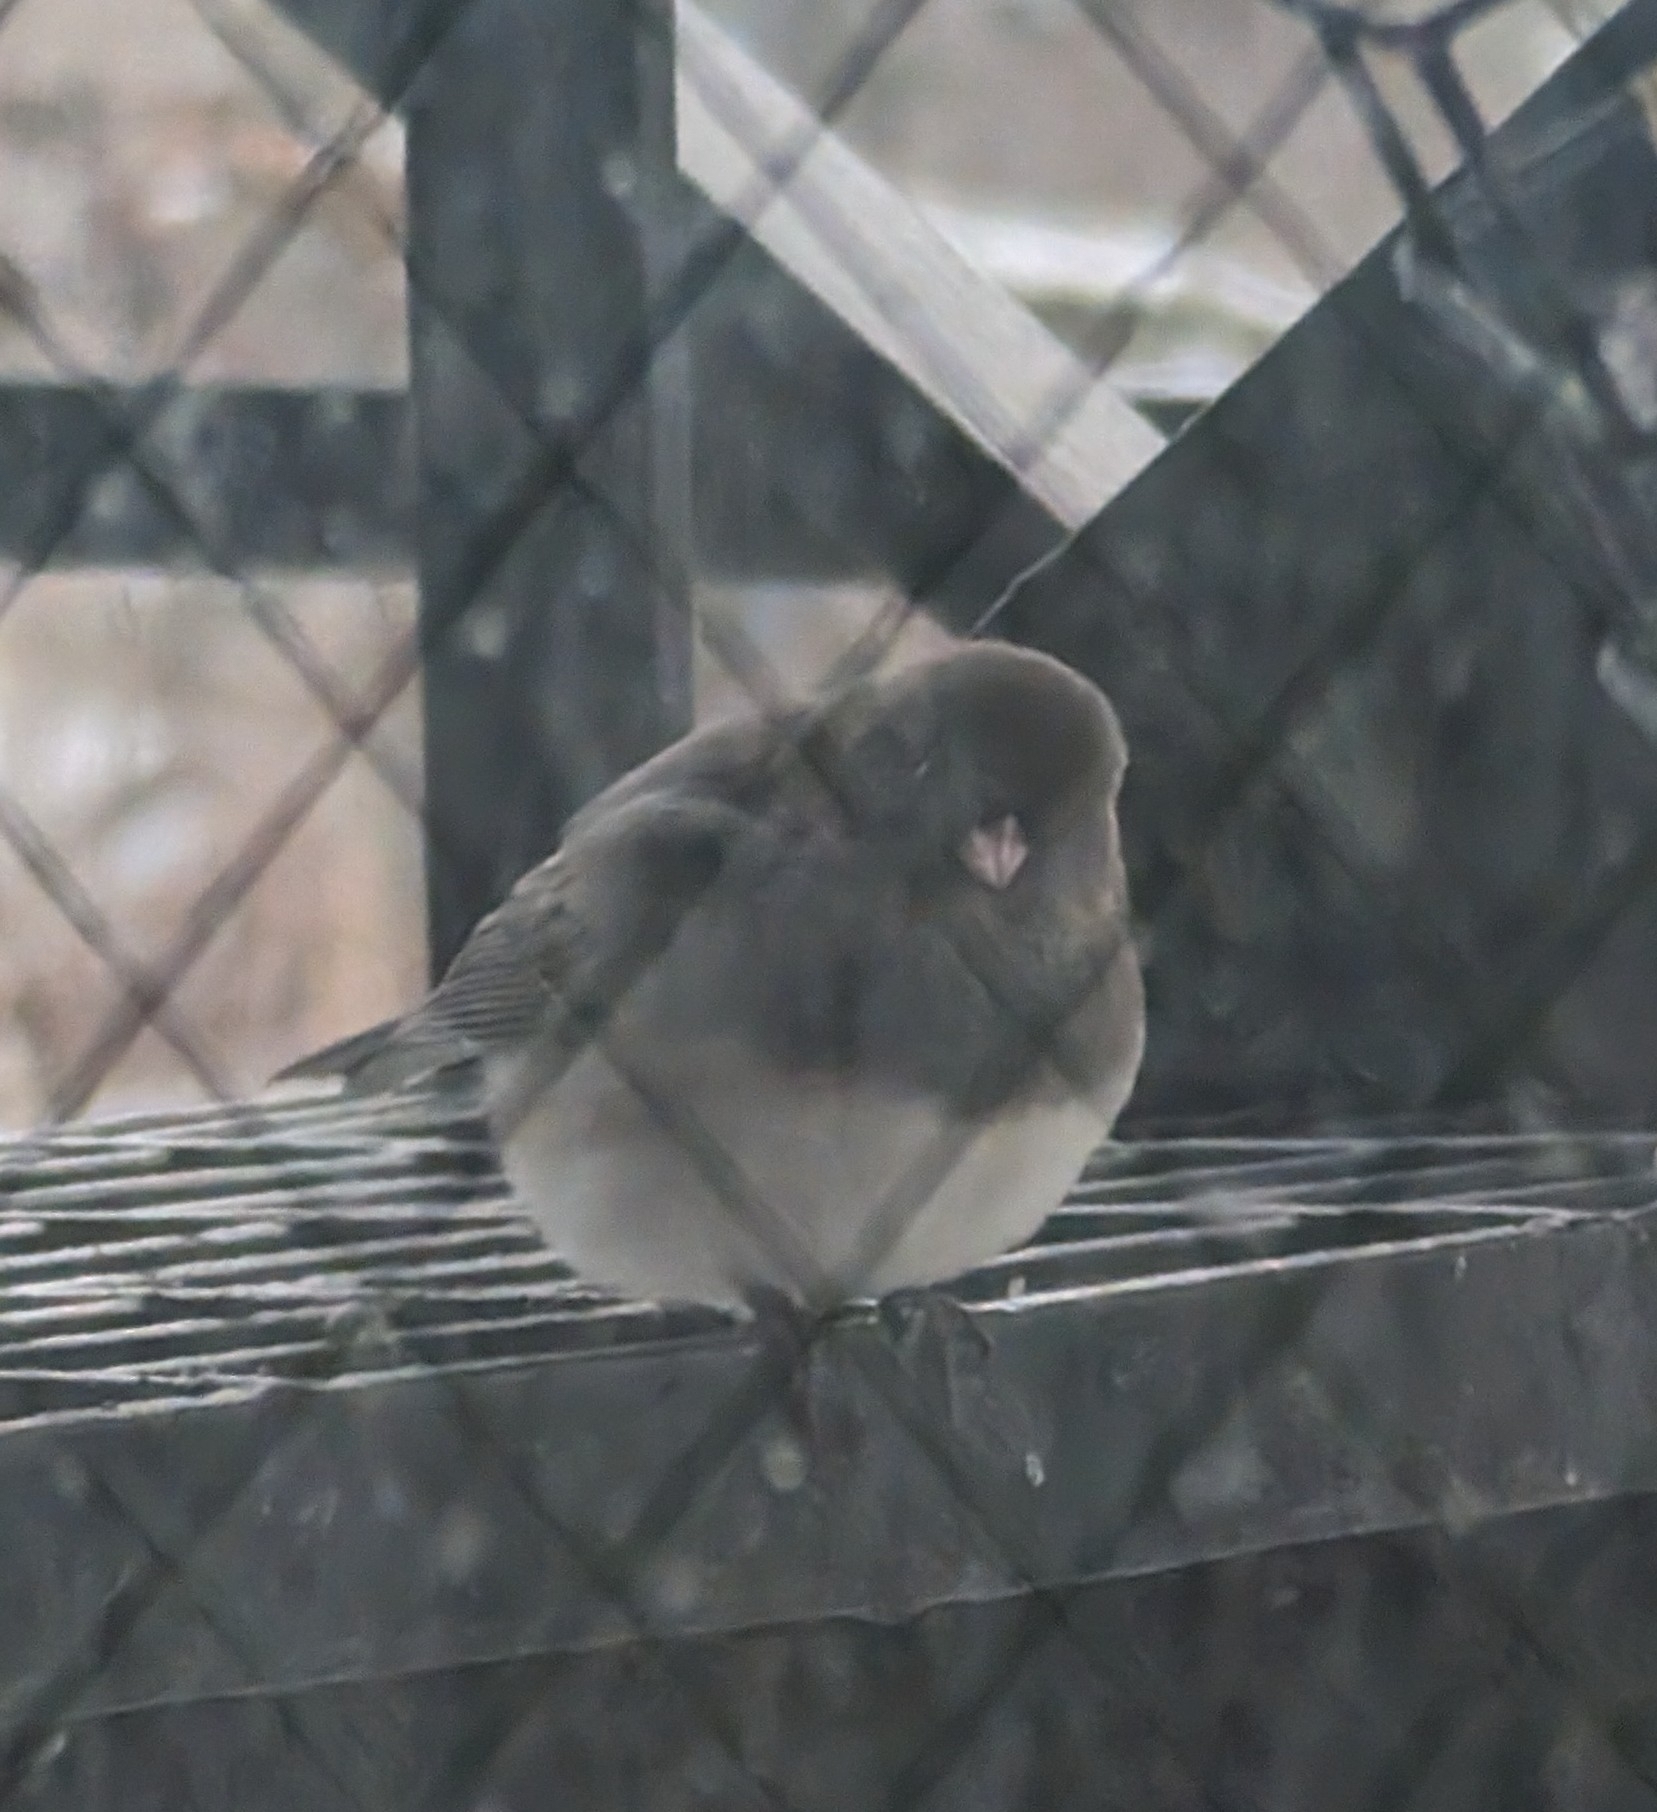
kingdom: Animalia
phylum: Chordata
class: Aves
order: Passeriformes
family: Passerellidae
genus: Junco
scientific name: Junco hyemalis
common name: Dark-eyed junco
